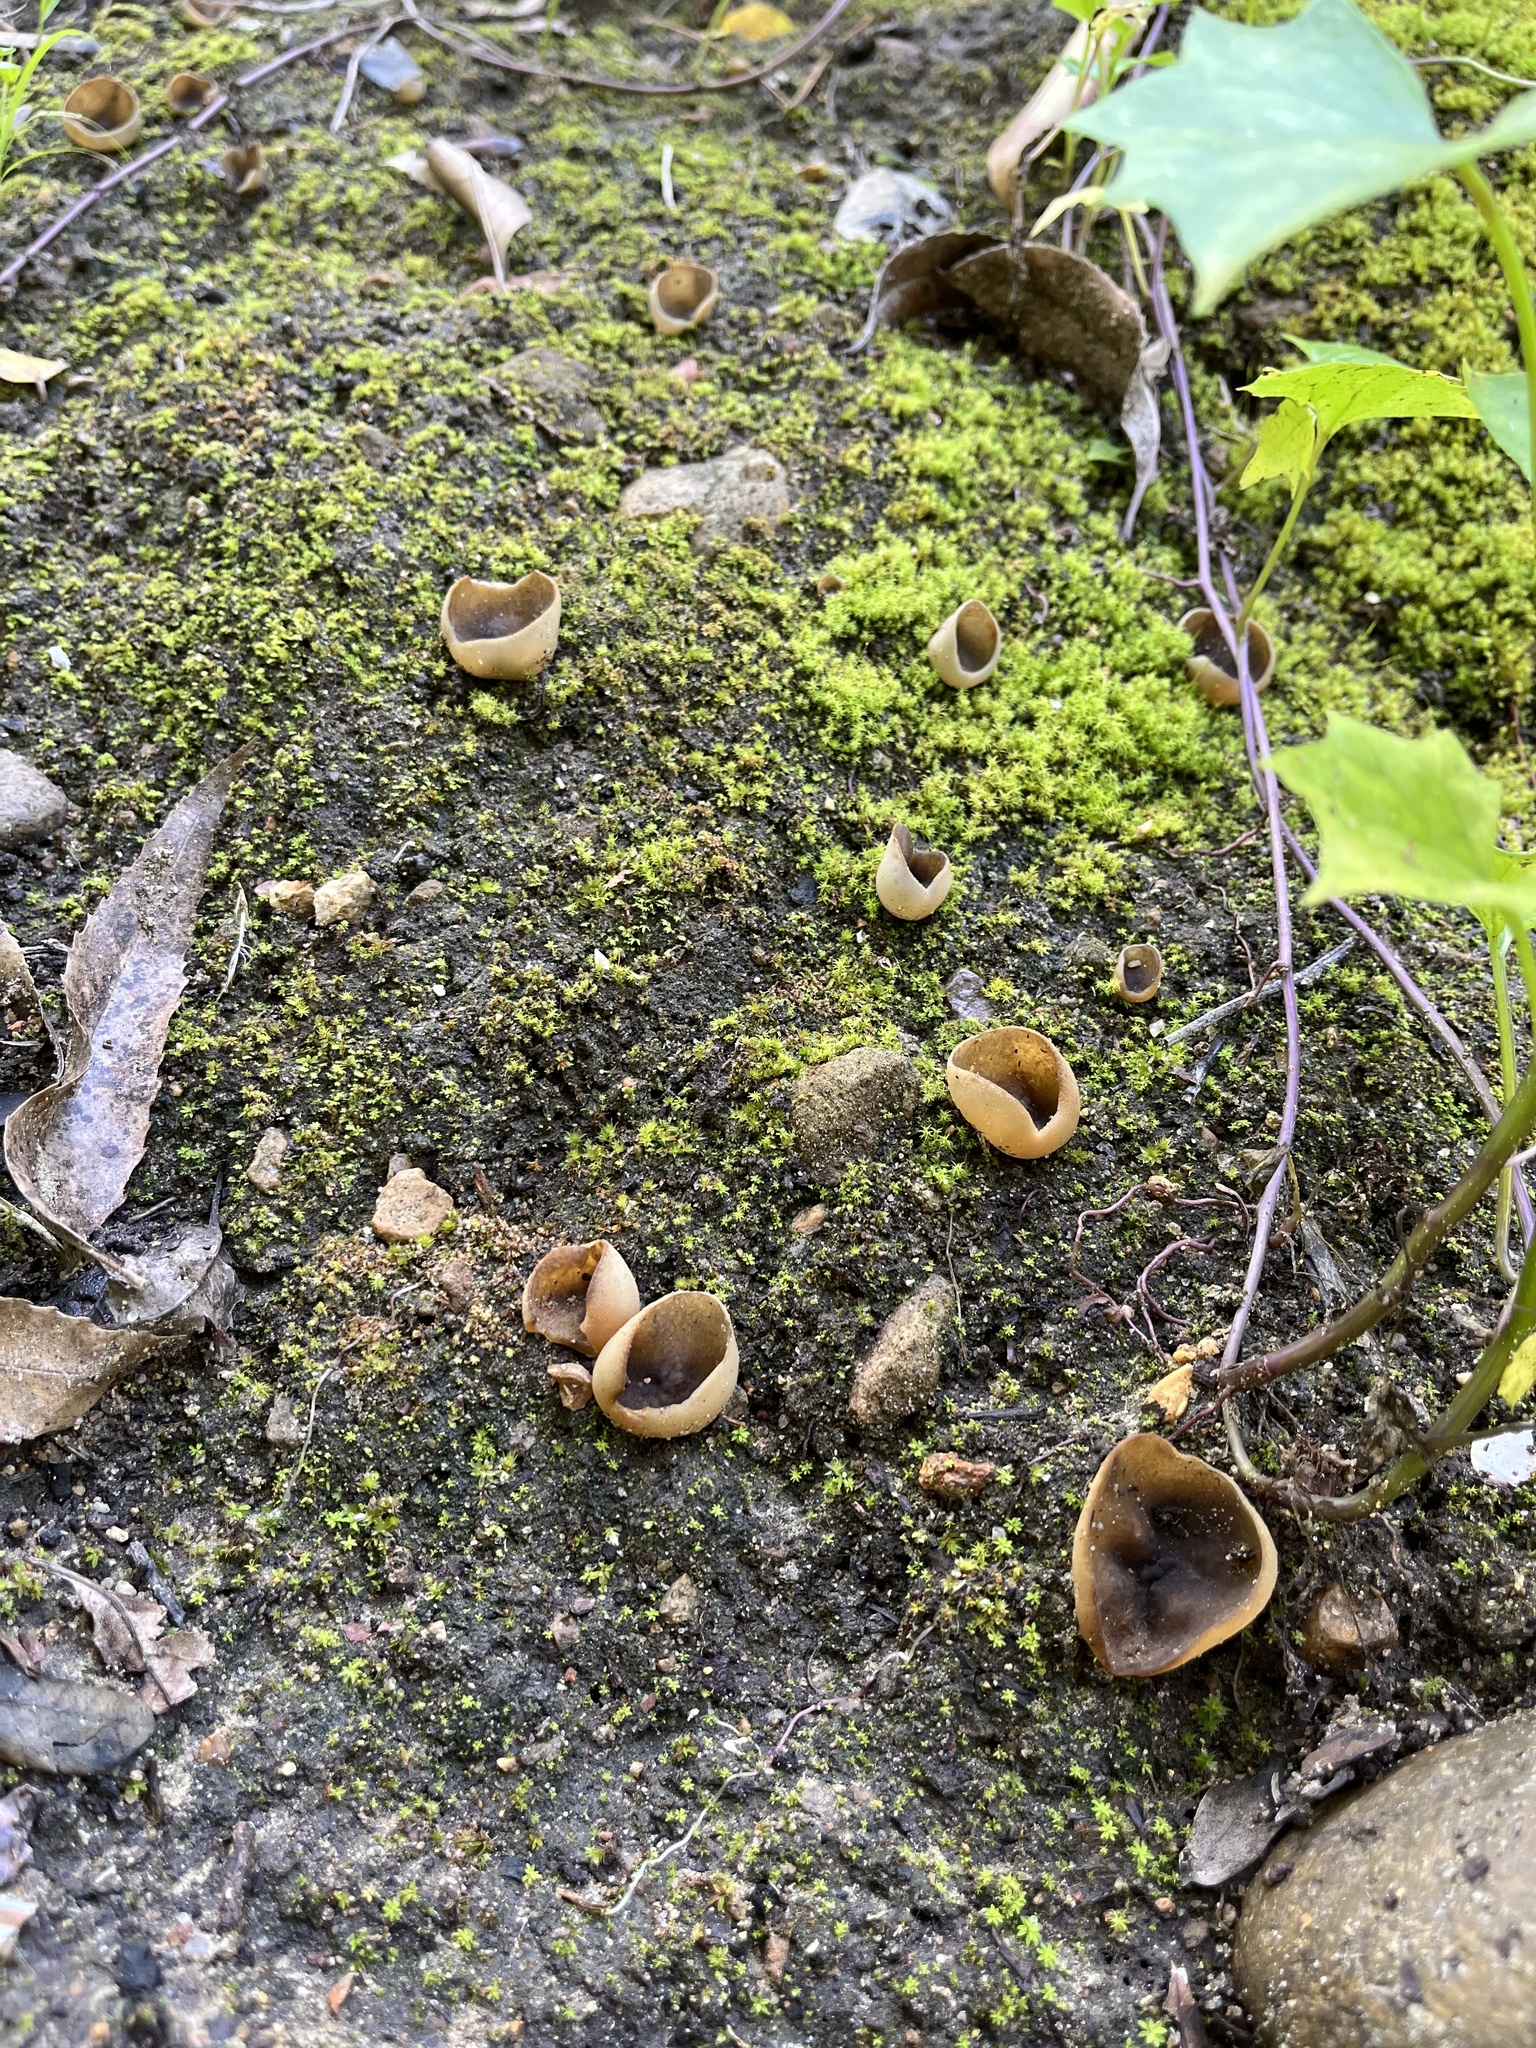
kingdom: Fungi
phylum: Ascomycota
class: Pezizomycetes
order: Pezizales
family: Helvellaceae
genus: Dissingia
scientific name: Dissingia leucomelaena
